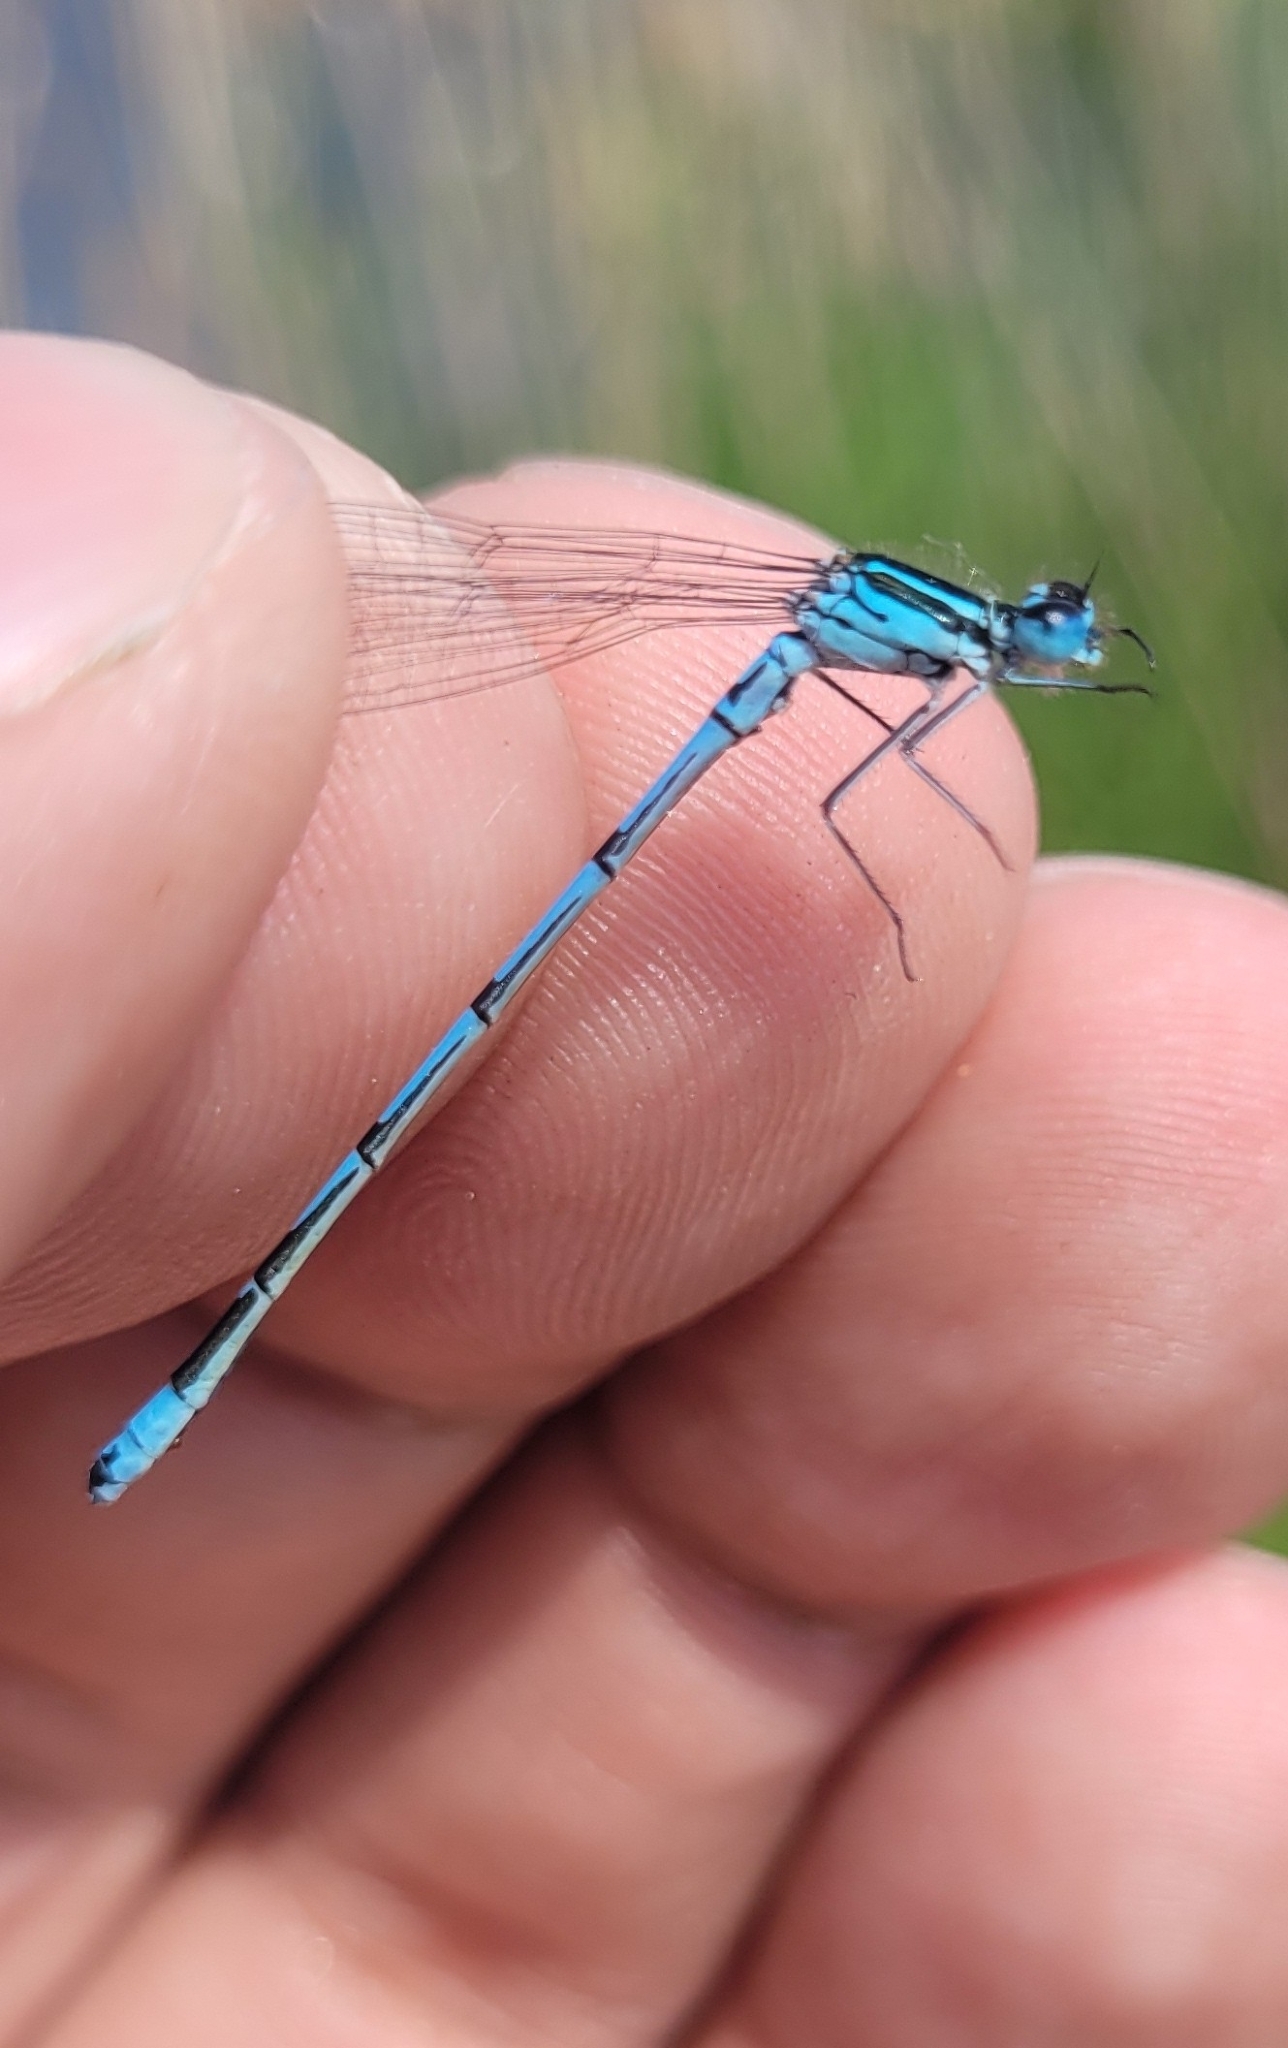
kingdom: Animalia
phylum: Arthropoda
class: Insecta
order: Odonata
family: Coenagrionidae
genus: Coenagrion
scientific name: Coenagrion puella
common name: Azure damselfly
